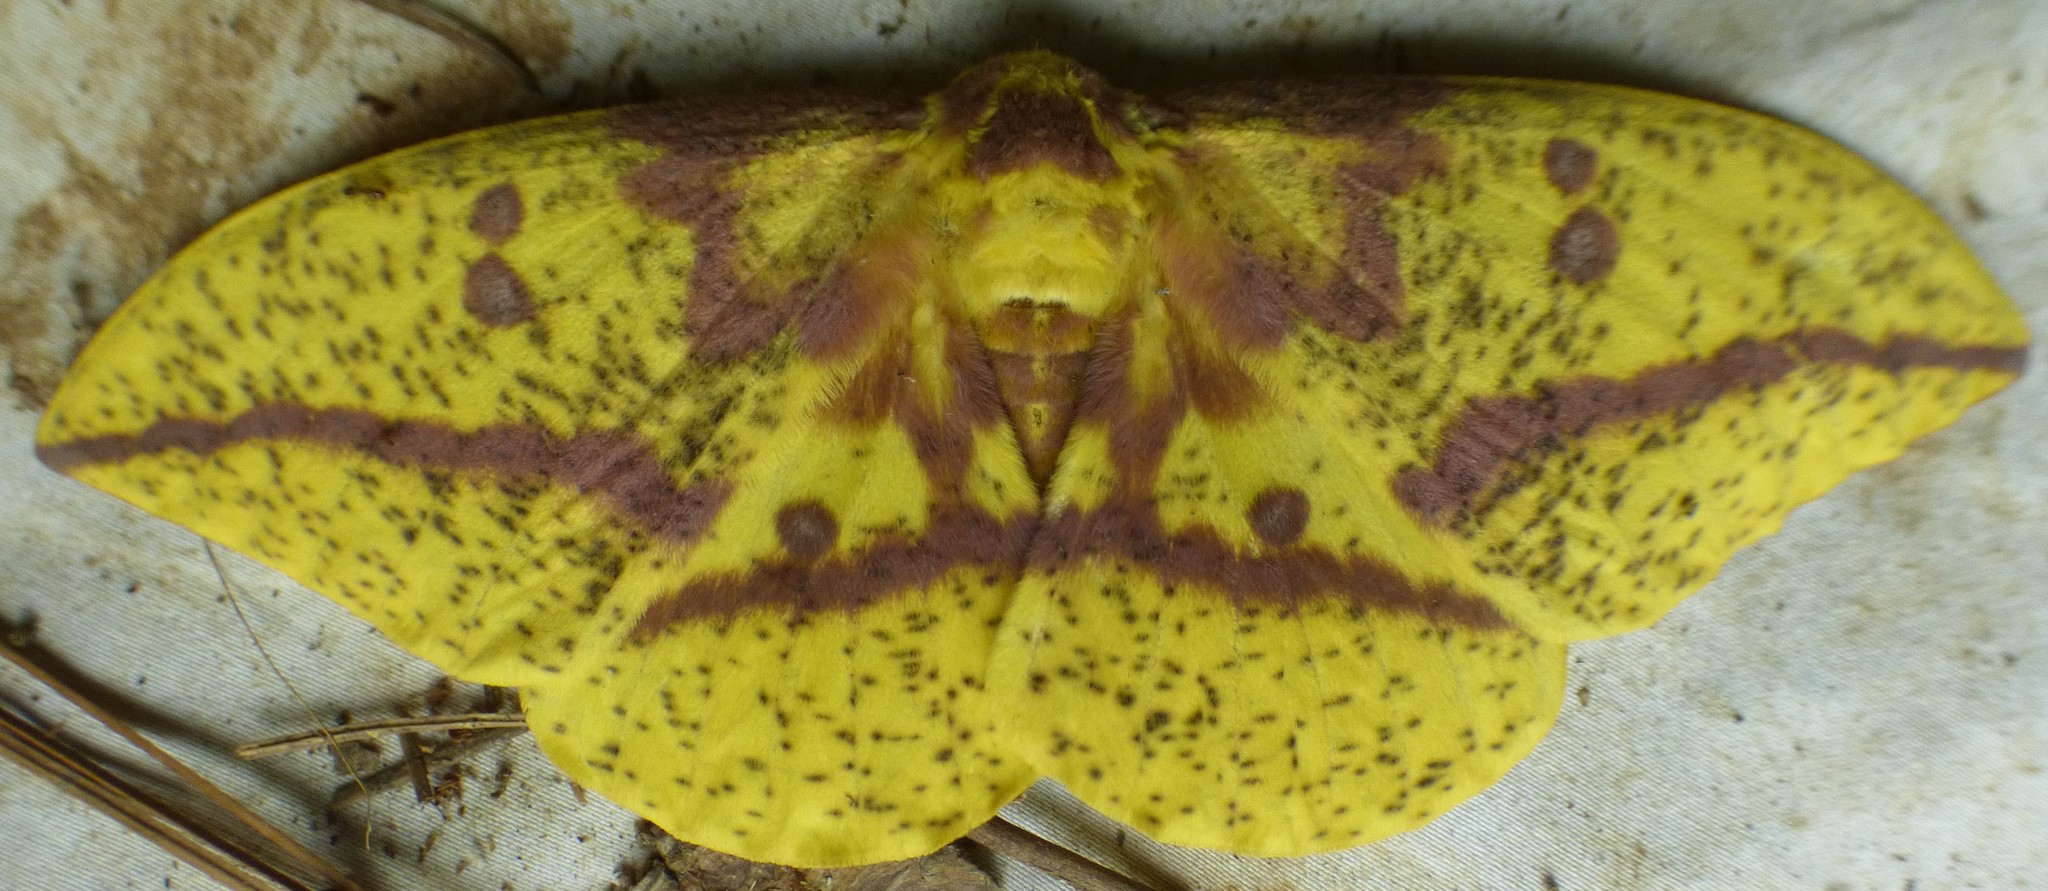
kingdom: Animalia
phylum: Arthropoda
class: Insecta
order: Lepidoptera
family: Saturniidae
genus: Eacles
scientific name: Eacles imperialis
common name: Imperial moth
